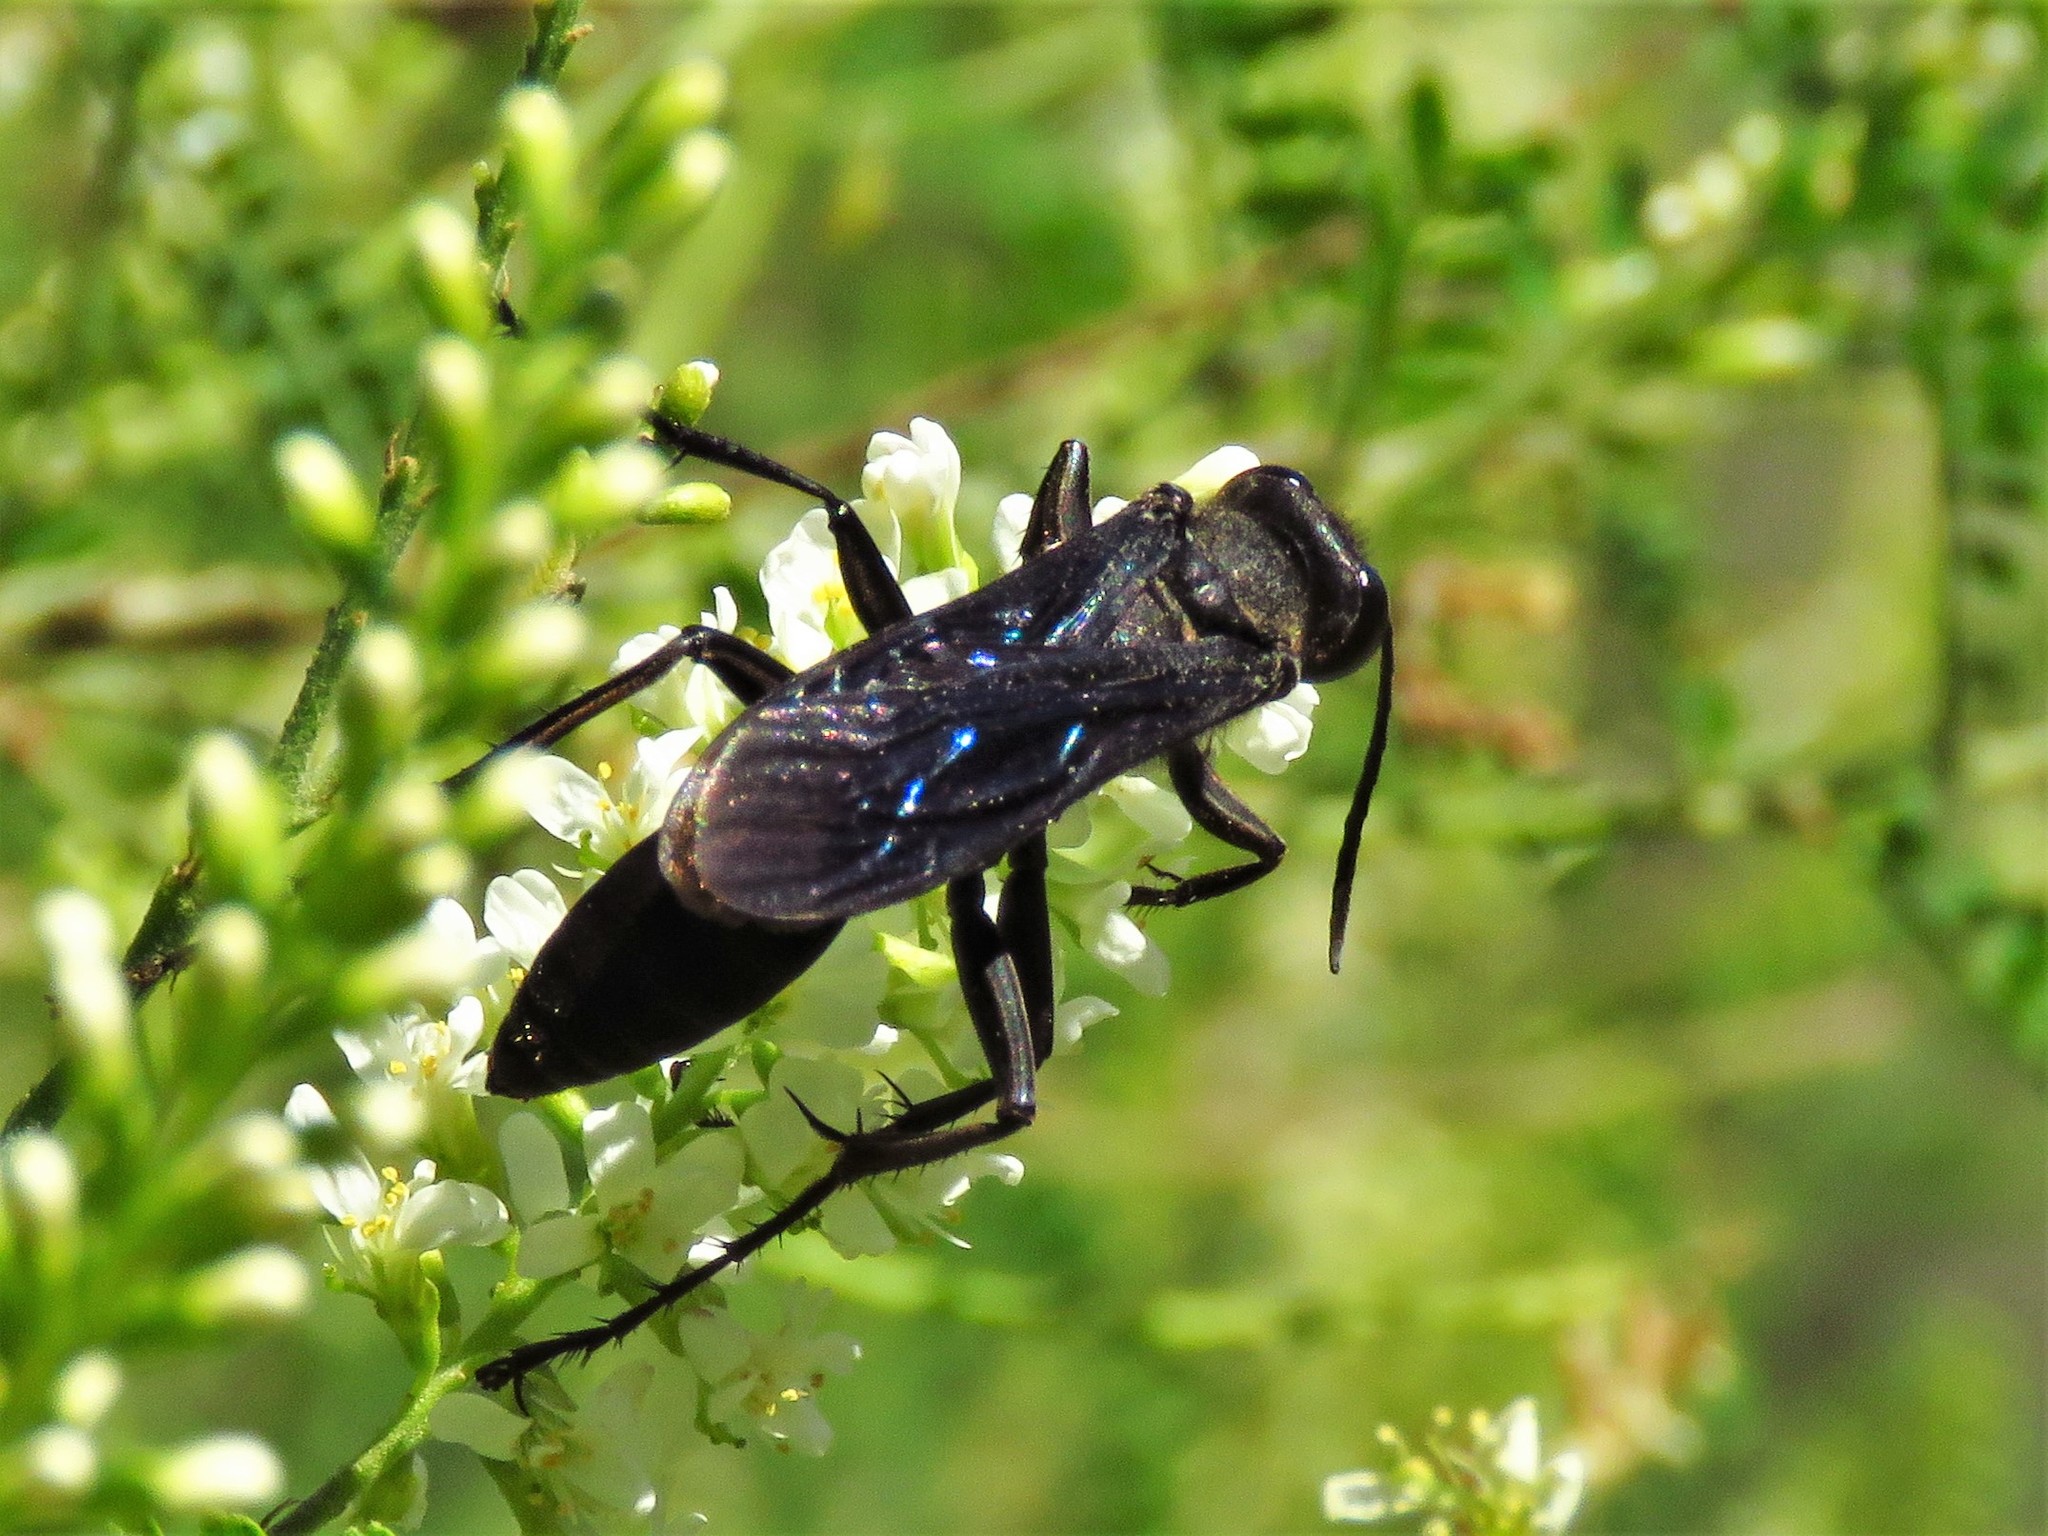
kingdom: Animalia
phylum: Arthropoda
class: Insecta
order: Hymenoptera
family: Sphecidae
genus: Sphex
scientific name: Sphex pensylvanicus
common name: Great black digger wasp
